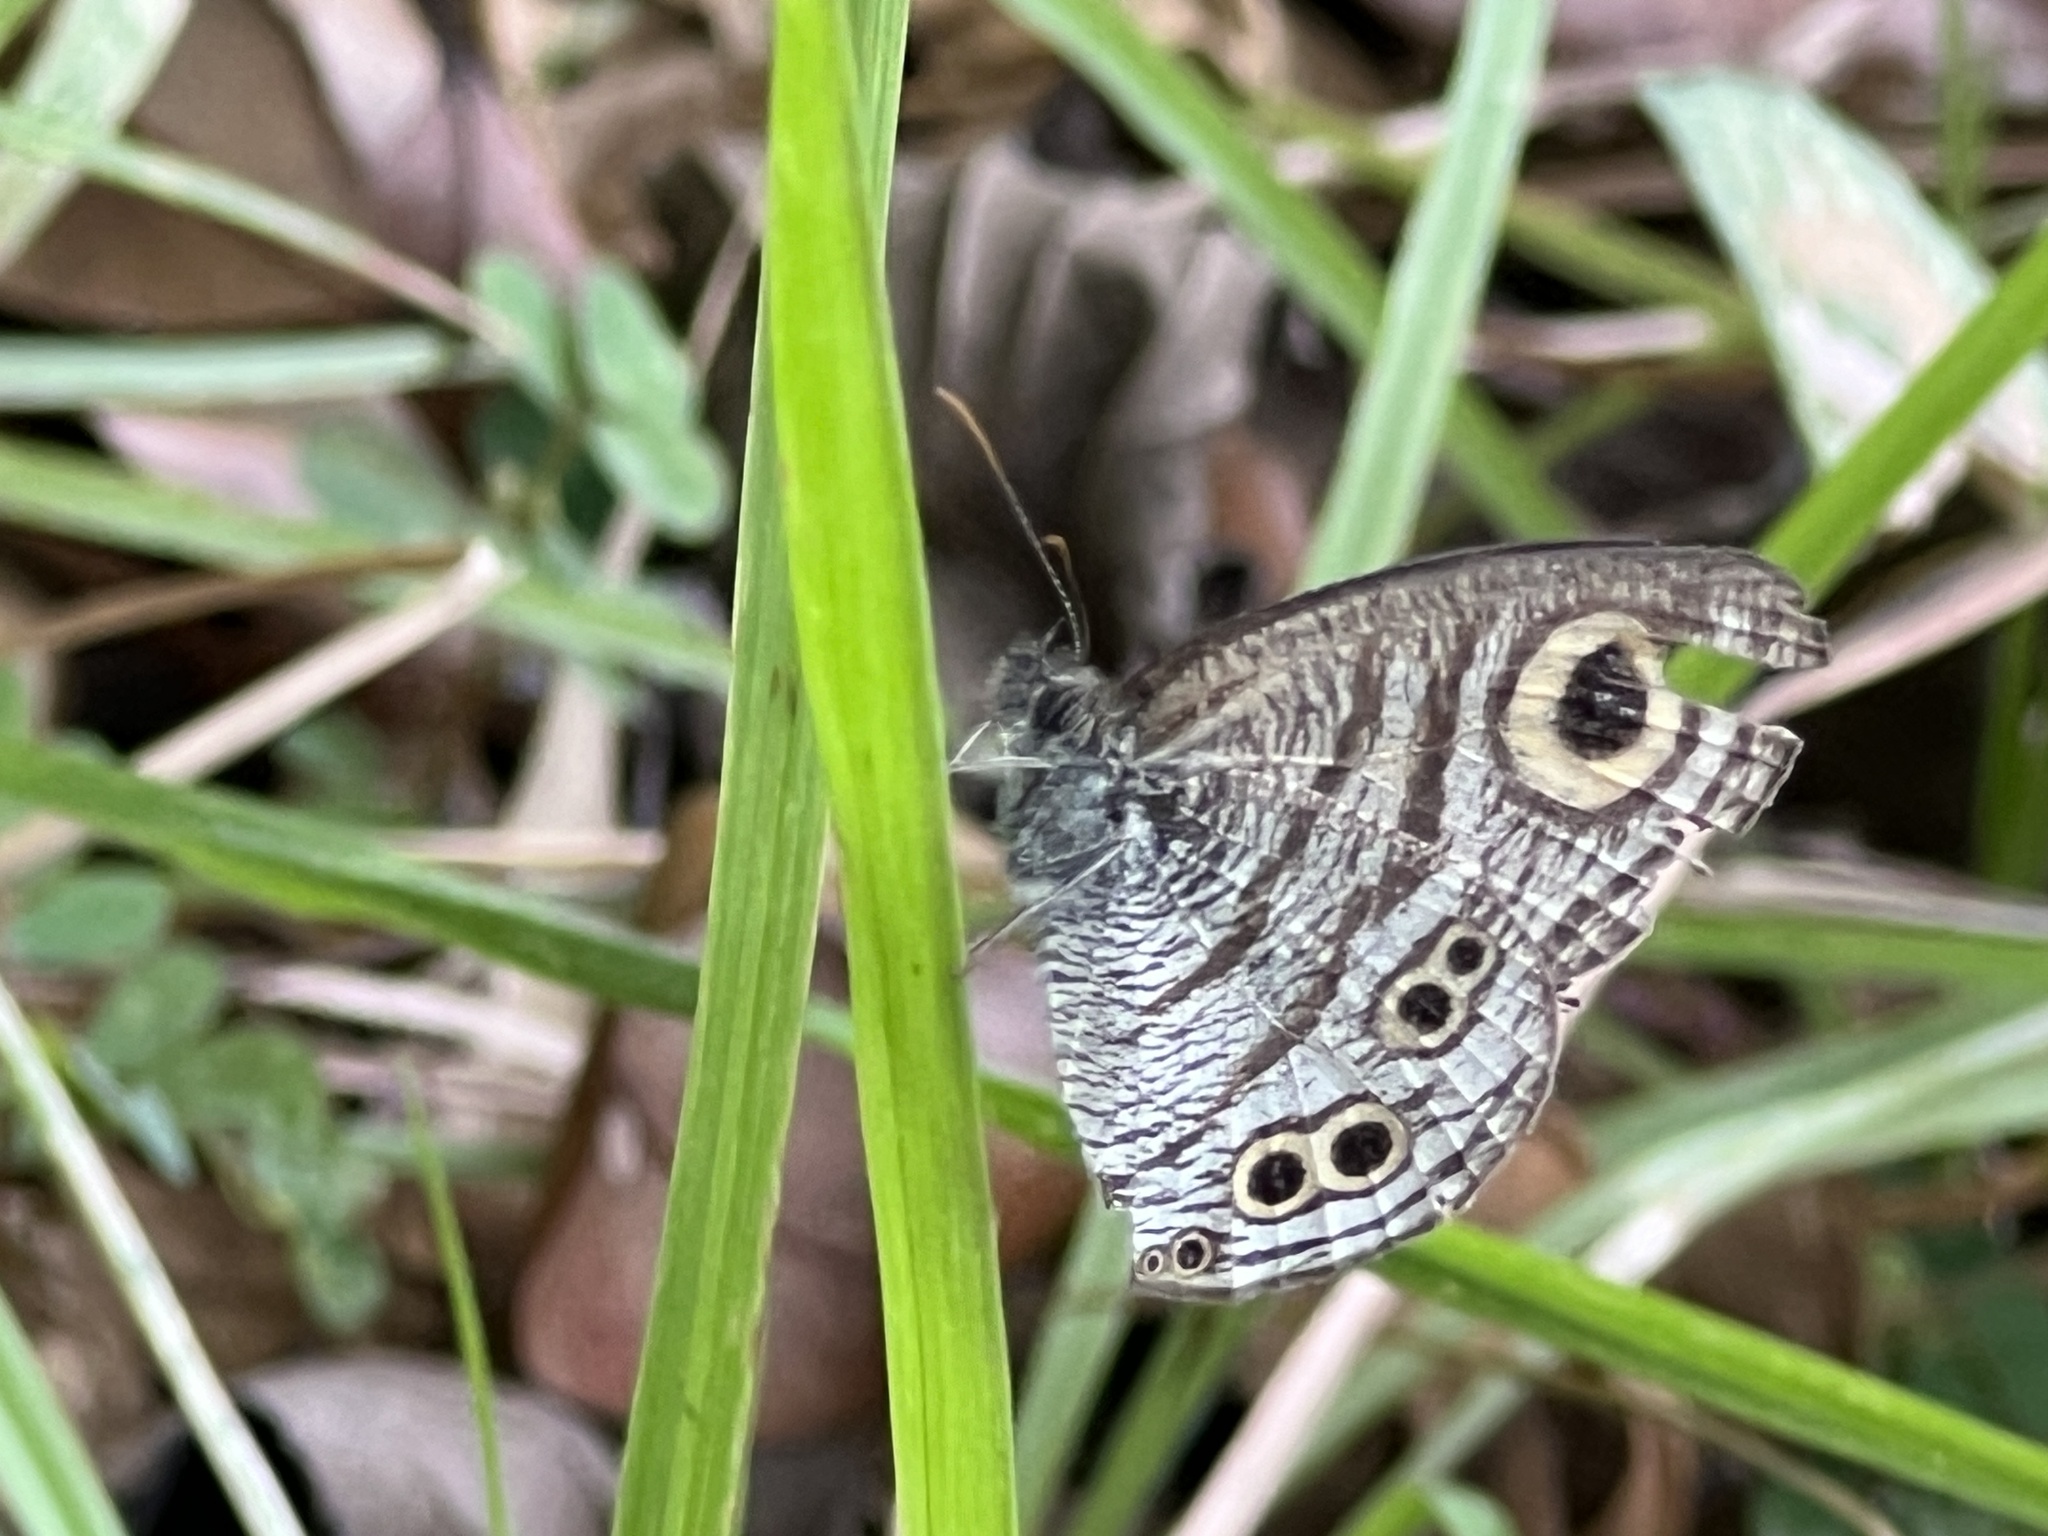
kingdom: Animalia
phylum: Arthropoda
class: Insecta
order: Lepidoptera
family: Nymphalidae
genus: Ypthima
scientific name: Ypthima stellera
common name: Philippine five-ring
